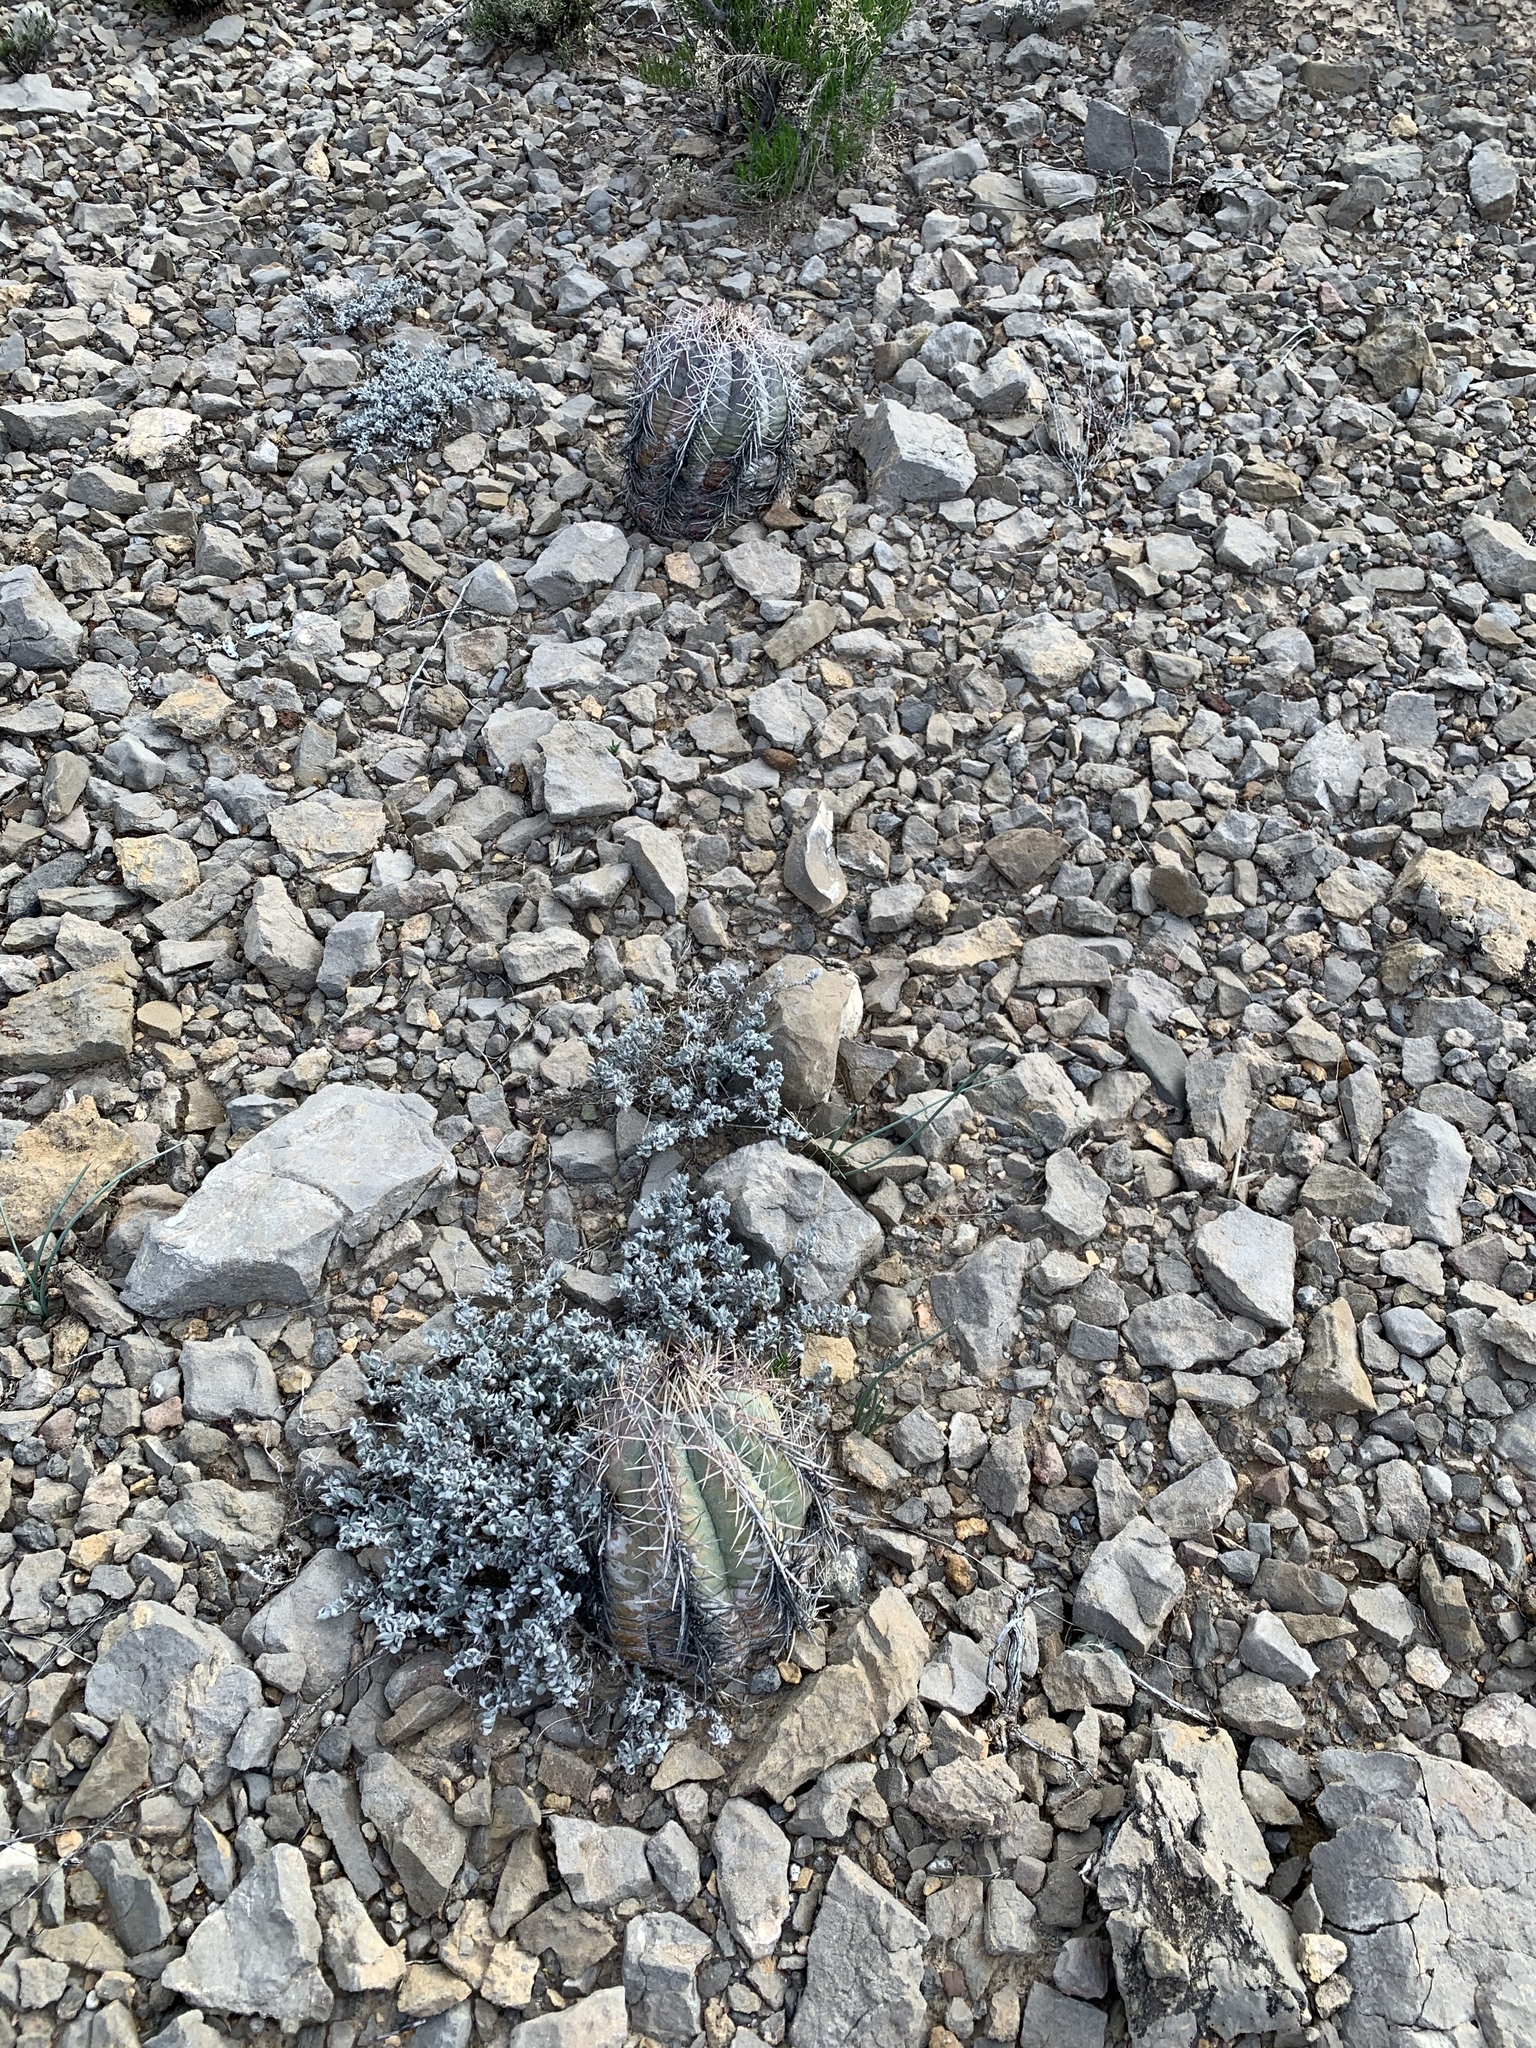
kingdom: Plantae
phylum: Tracheophyta
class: Magnoliopsida
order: Caryophyllales
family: Cactaceae
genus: Echinocactus
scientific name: Echinocactus horizonthalonius
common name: Devilshead
